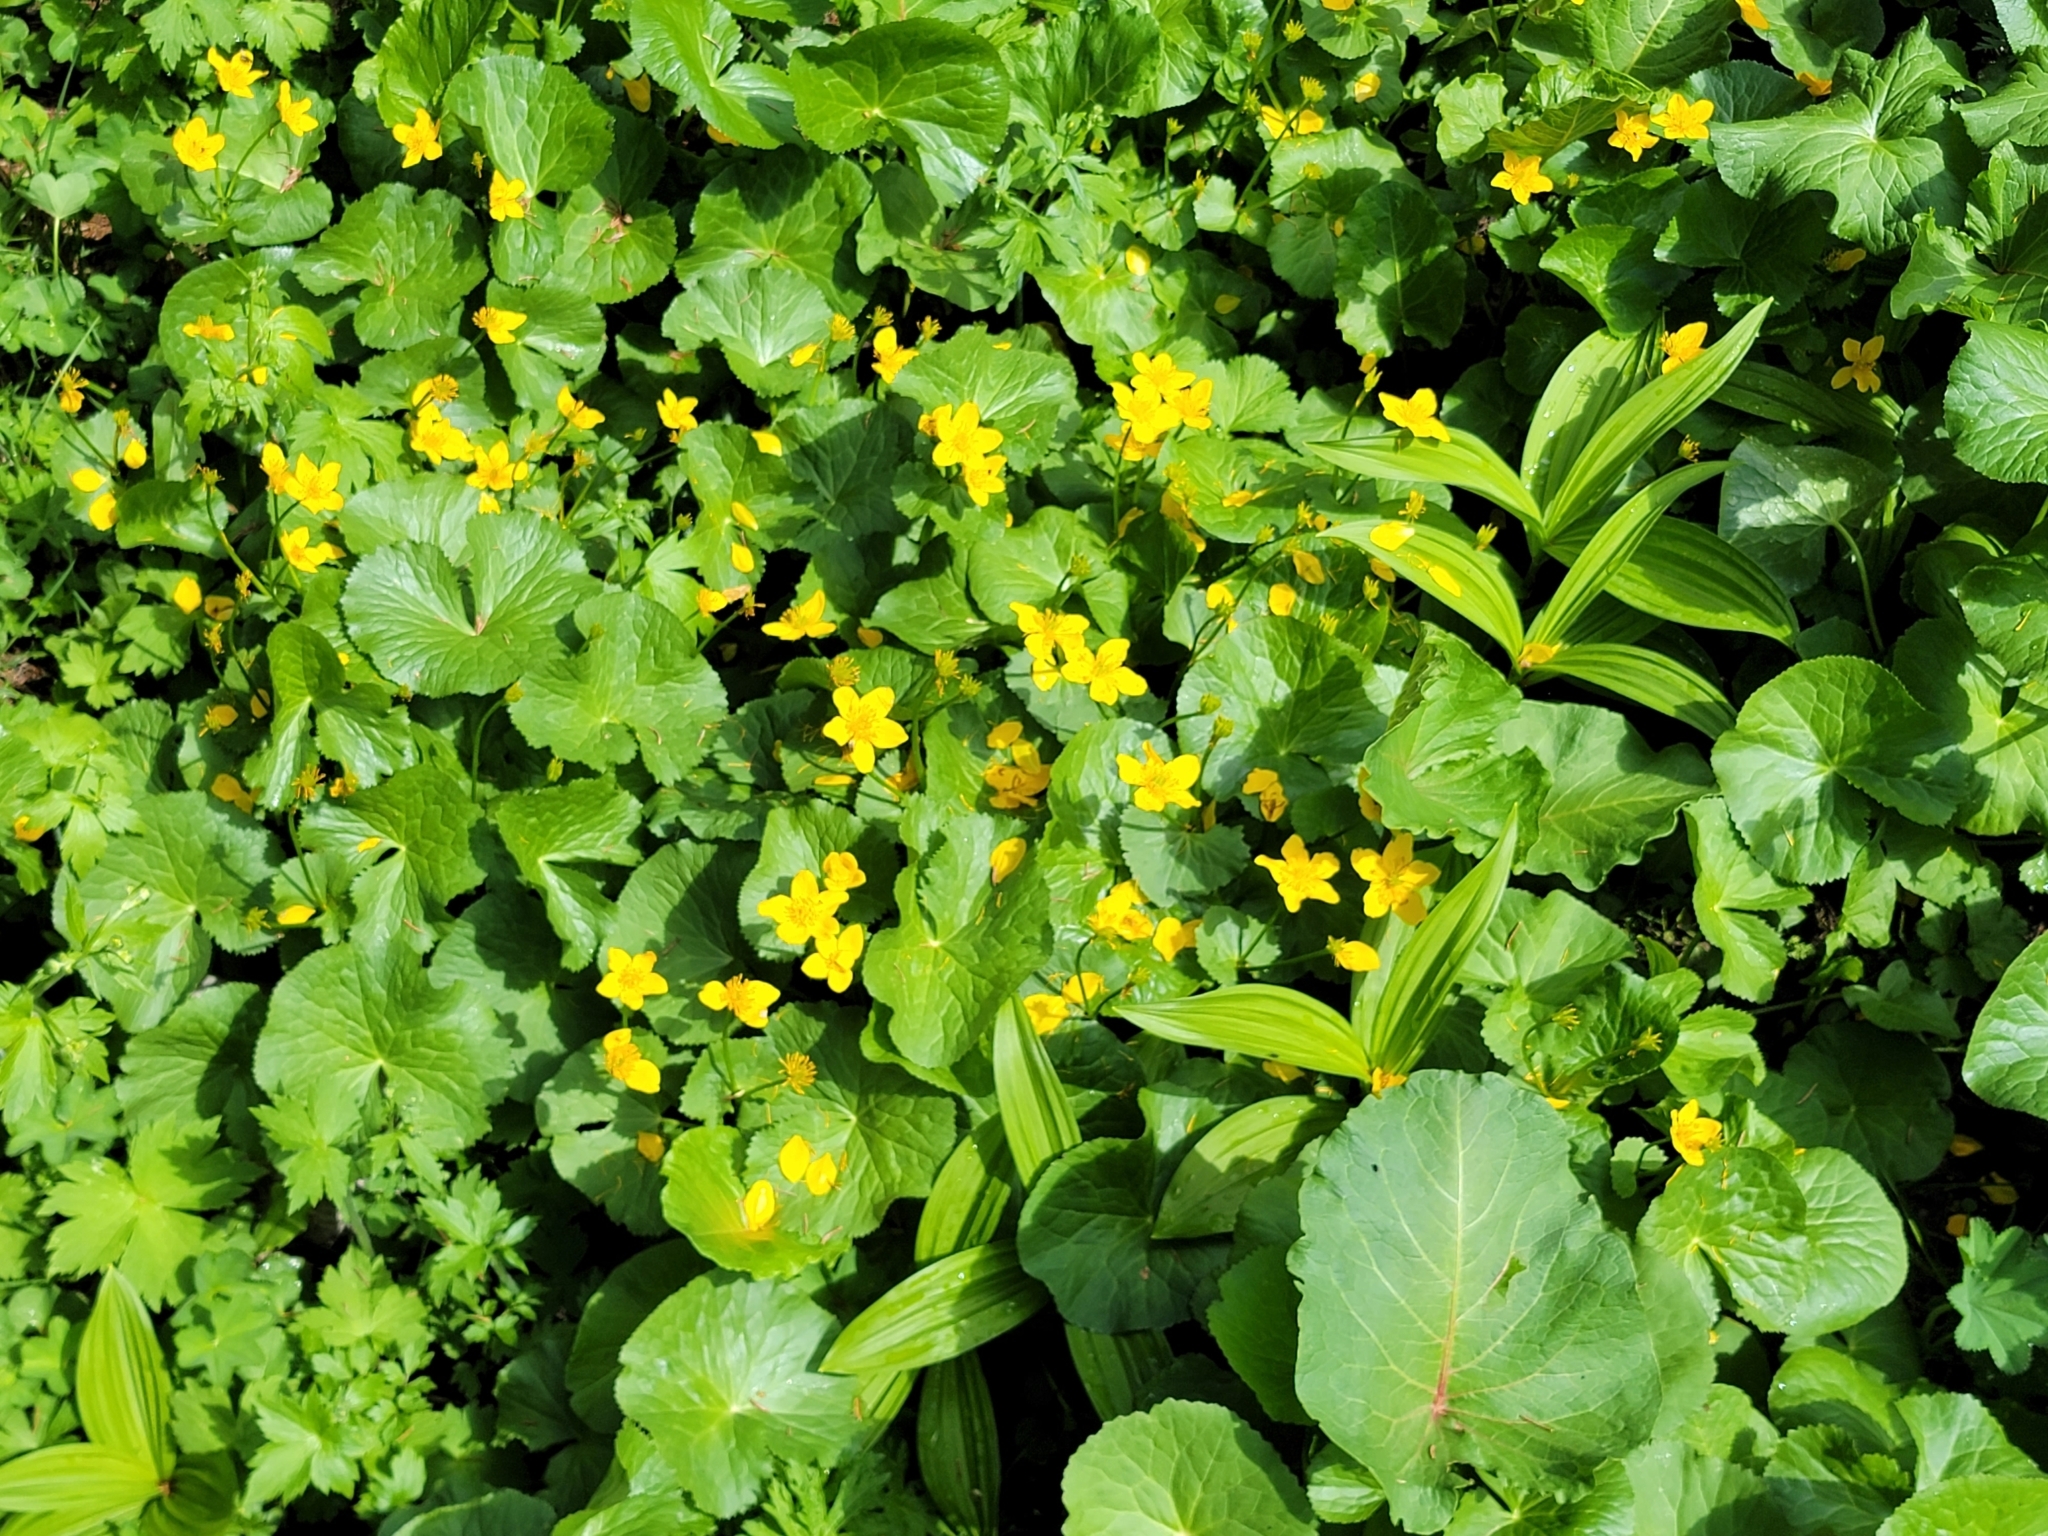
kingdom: Plantae
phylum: Tracheophyta
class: Magnoliopsida
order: Ranunculales
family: Ranunculaceae
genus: Caltha
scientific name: Caltha palustris
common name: Marsh marigold
